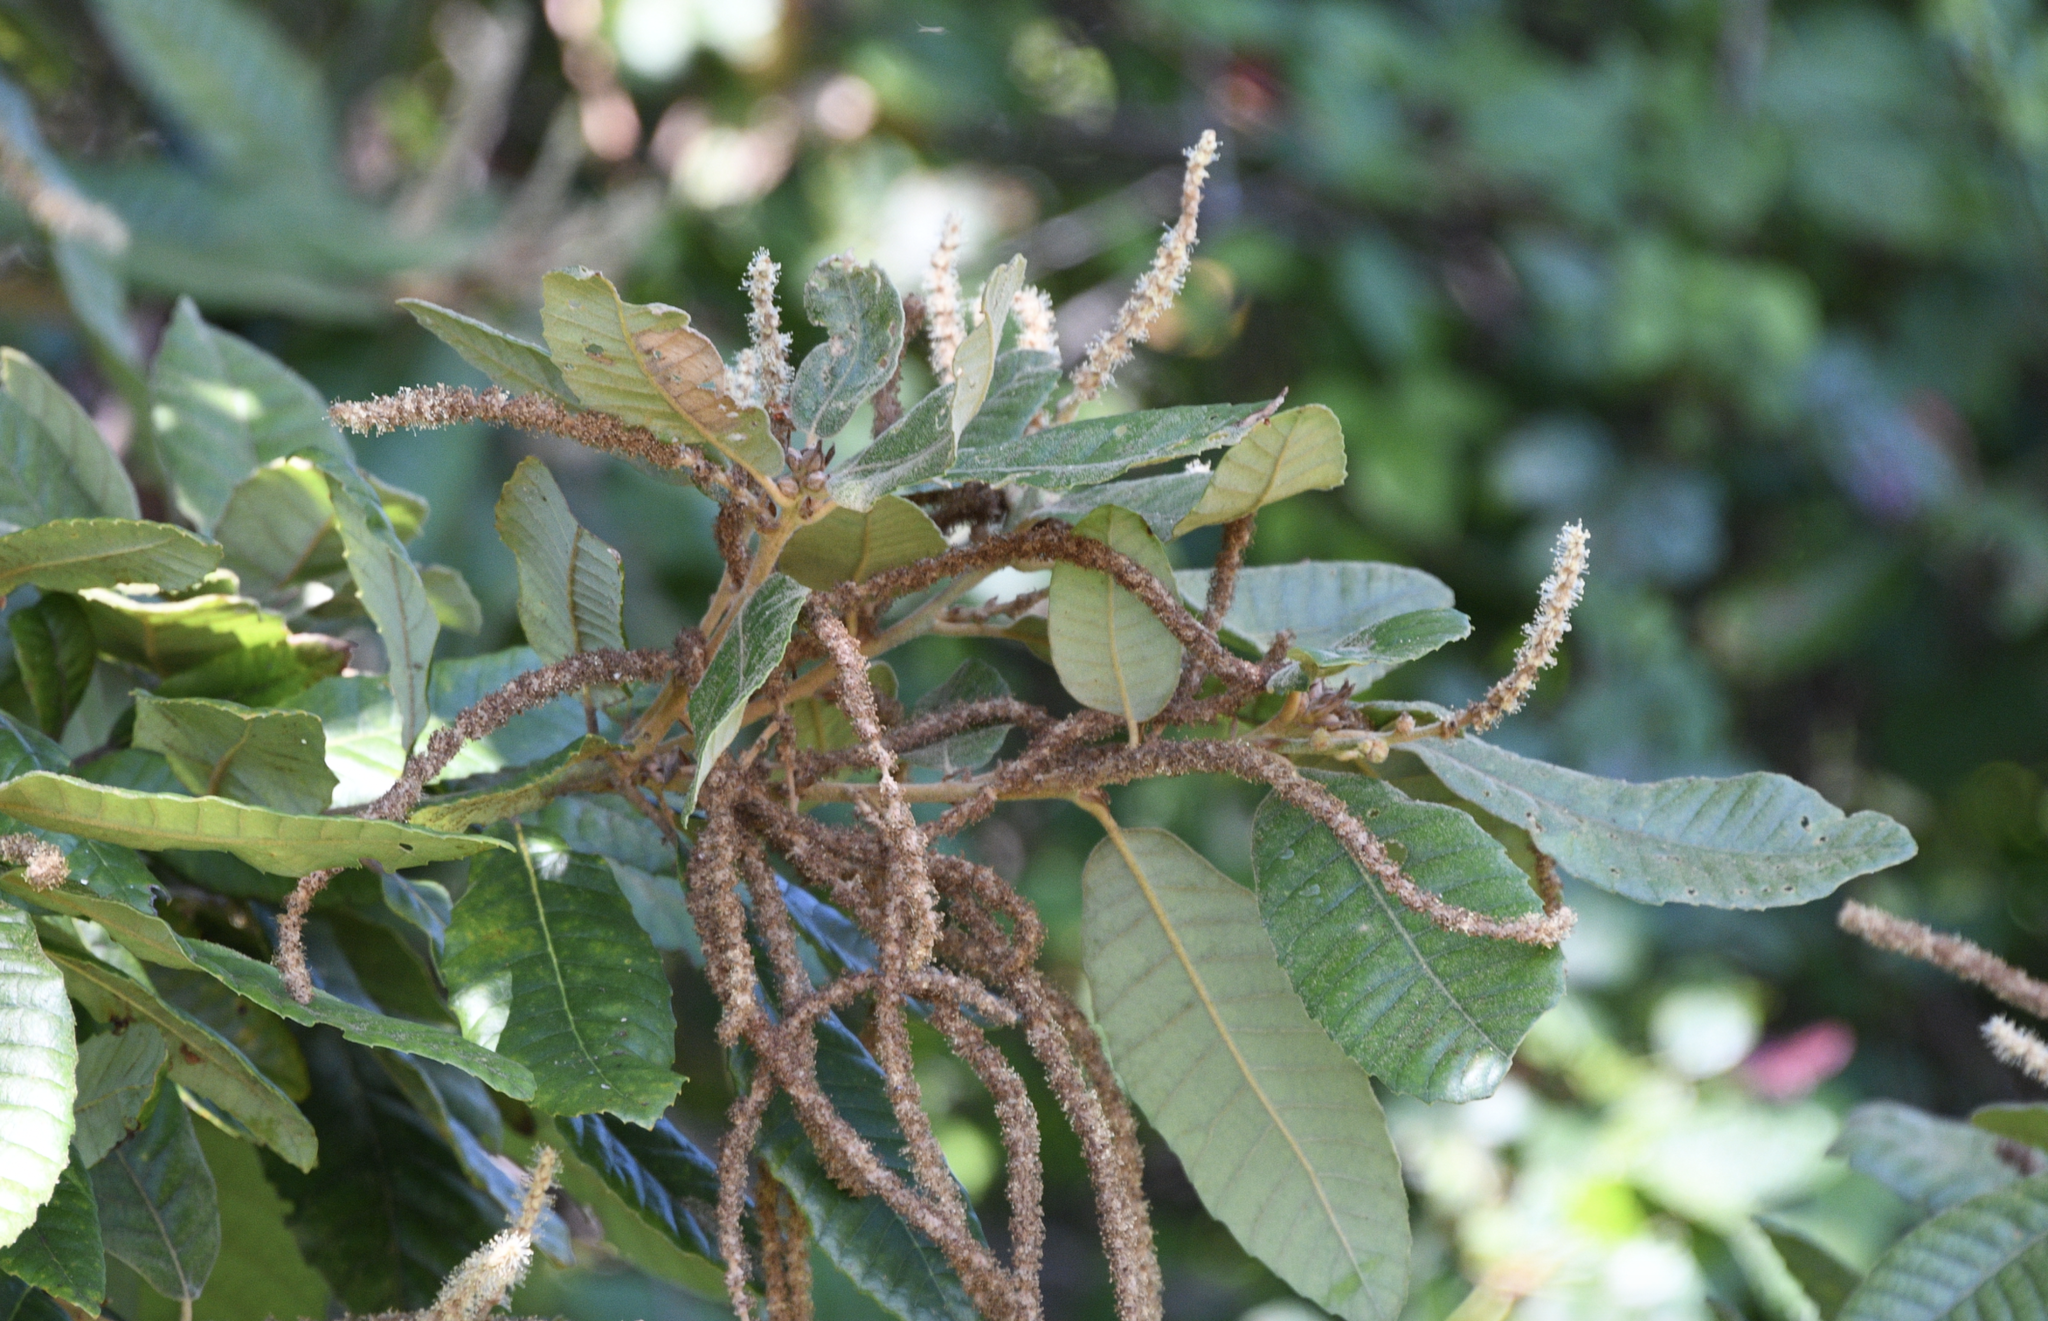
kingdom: Plantae
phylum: Tracheophyta
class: Magnoliopsida
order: Fagales
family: Fagaceae
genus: Notholithocarpus
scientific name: Notholithocarpus densiflorus
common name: Tan bark oak
